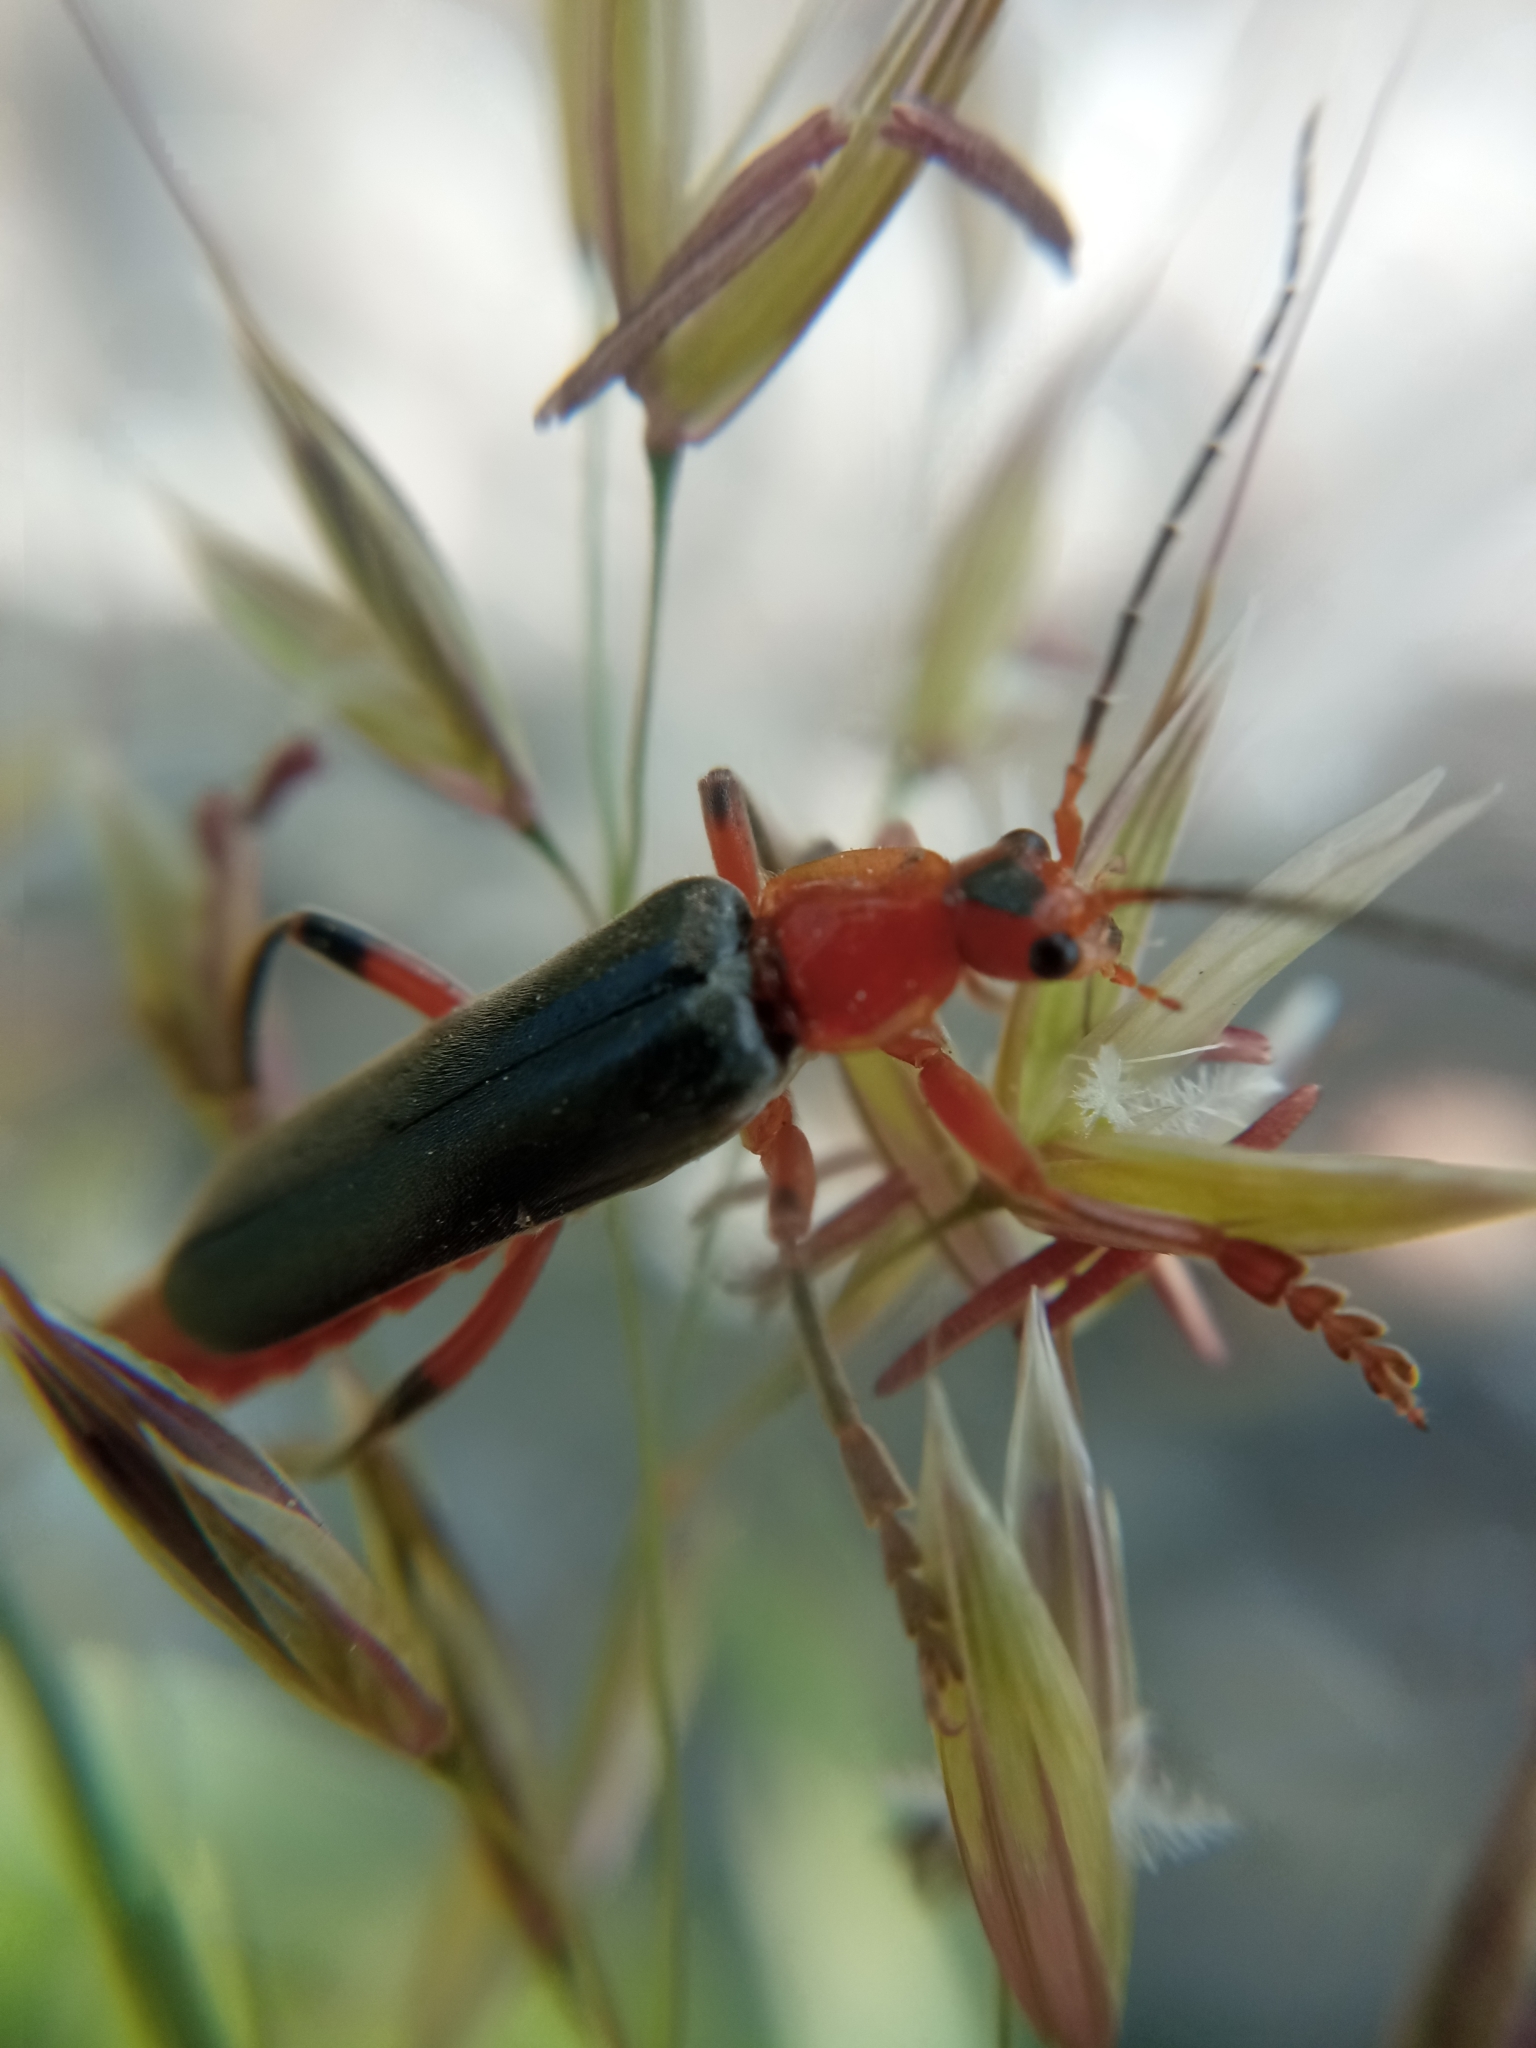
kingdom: Animalia
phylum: Arthropoda
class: Insecta
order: Coleoptera
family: Cantharidae
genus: Cantharis
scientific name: Cantharis livida
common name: Livid soldier beetle
